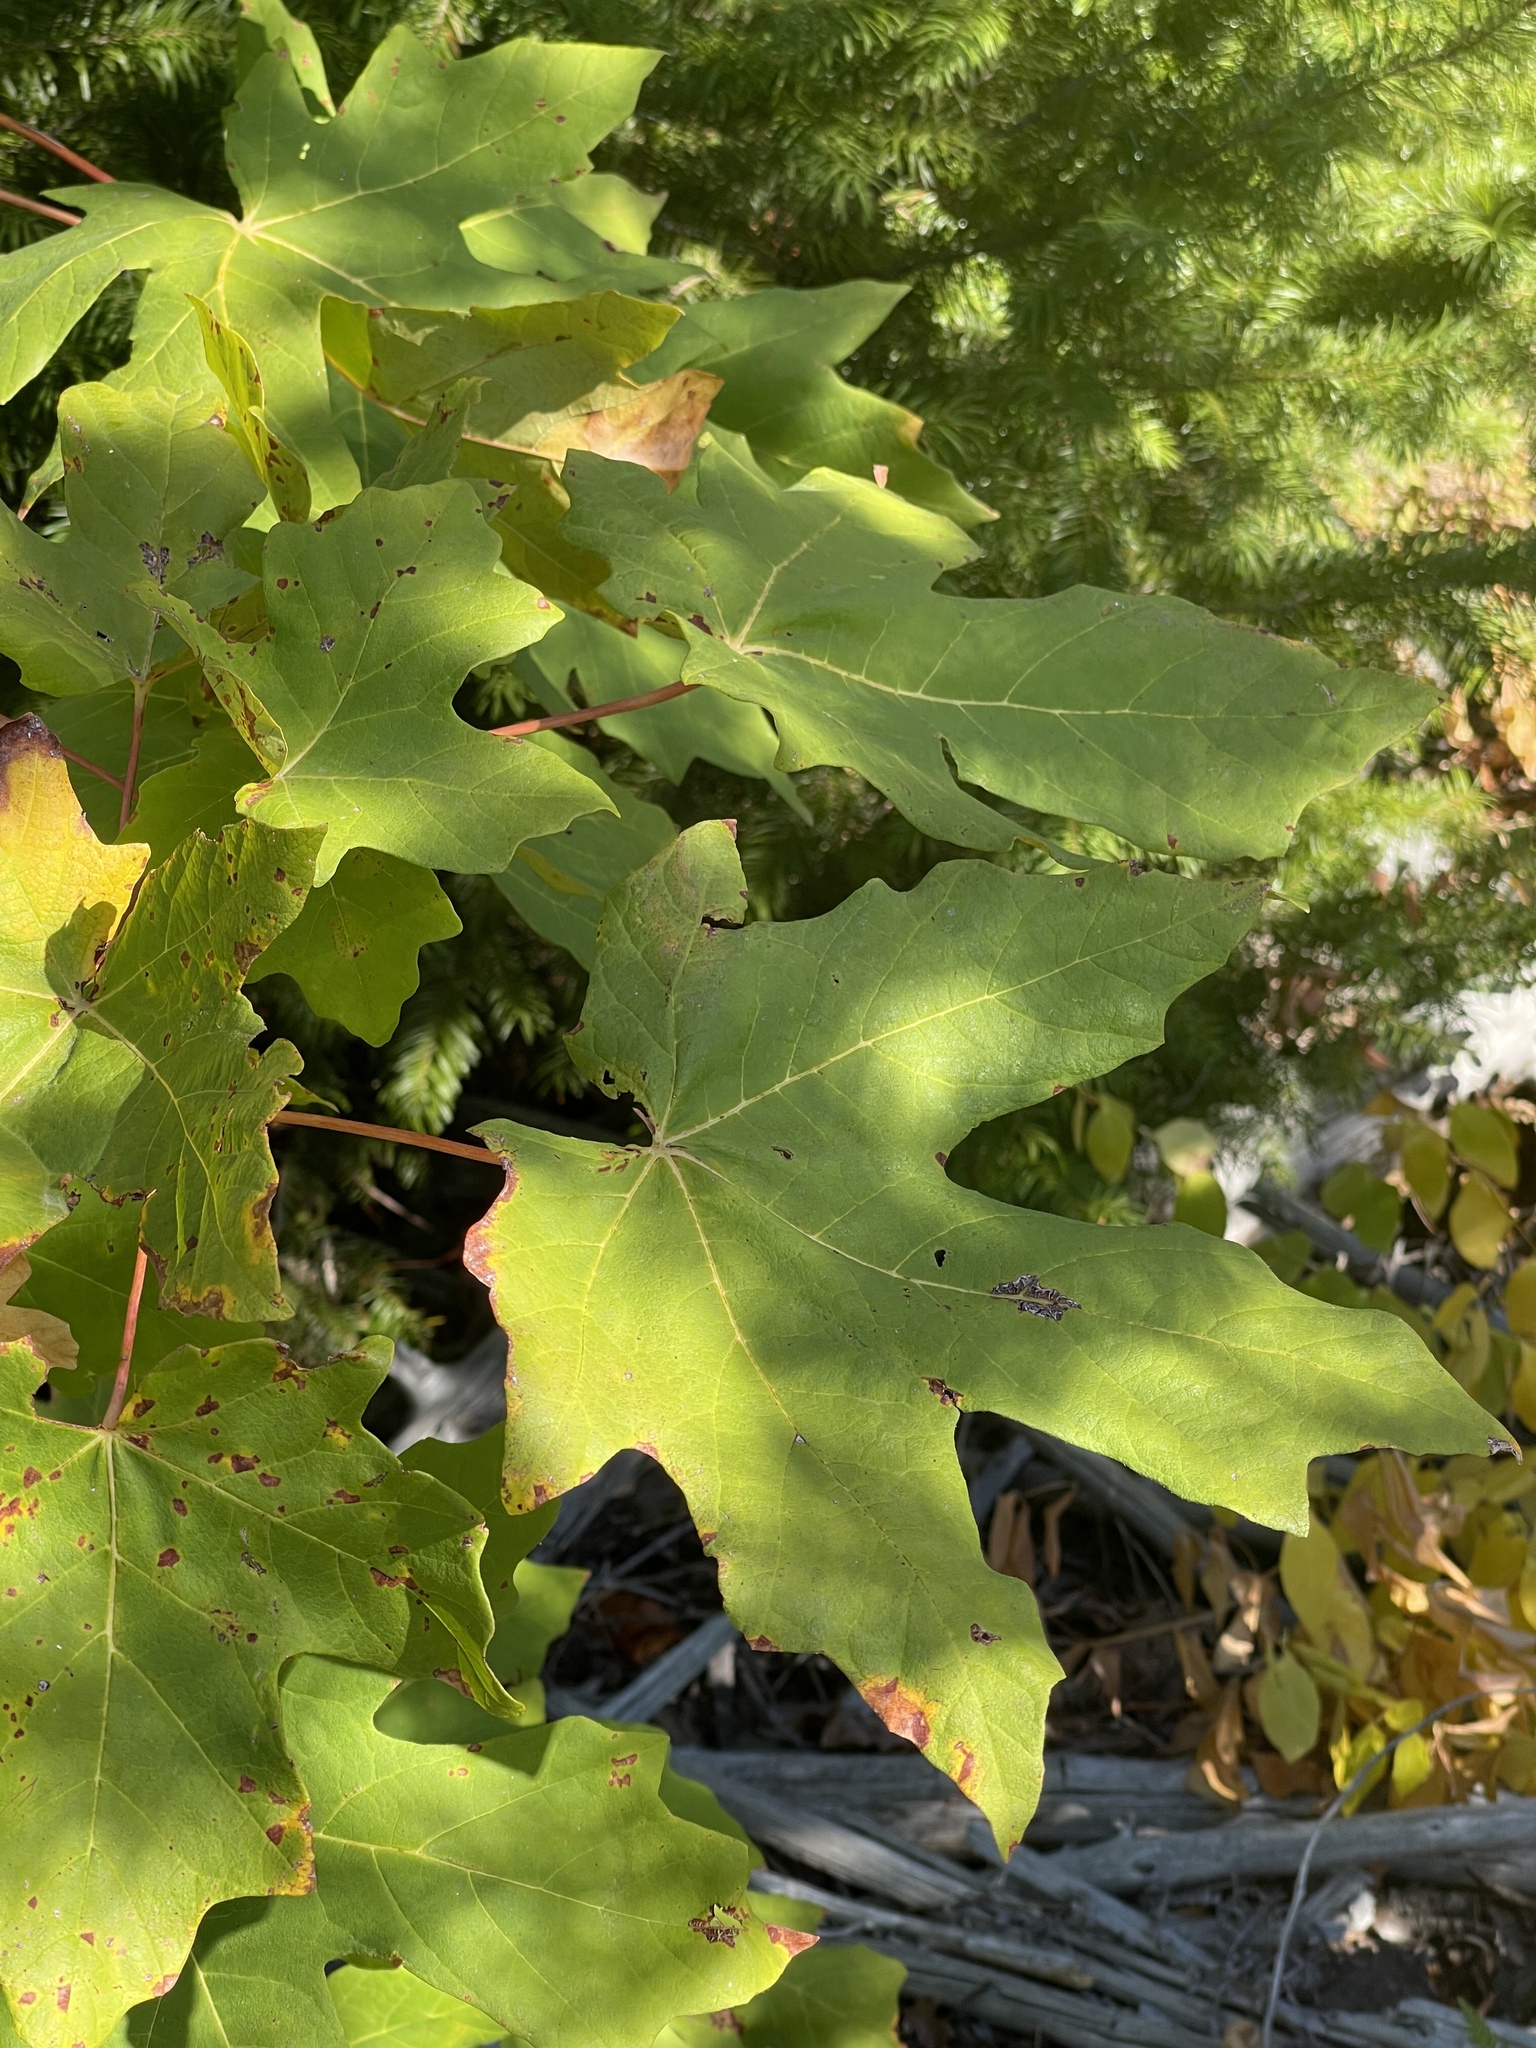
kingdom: Plantae
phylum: Tracheophyta
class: Magnoliopsida
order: Sapindales
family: Sapindaceae
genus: Acer
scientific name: Acer macrophyllum
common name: Oregon maple
